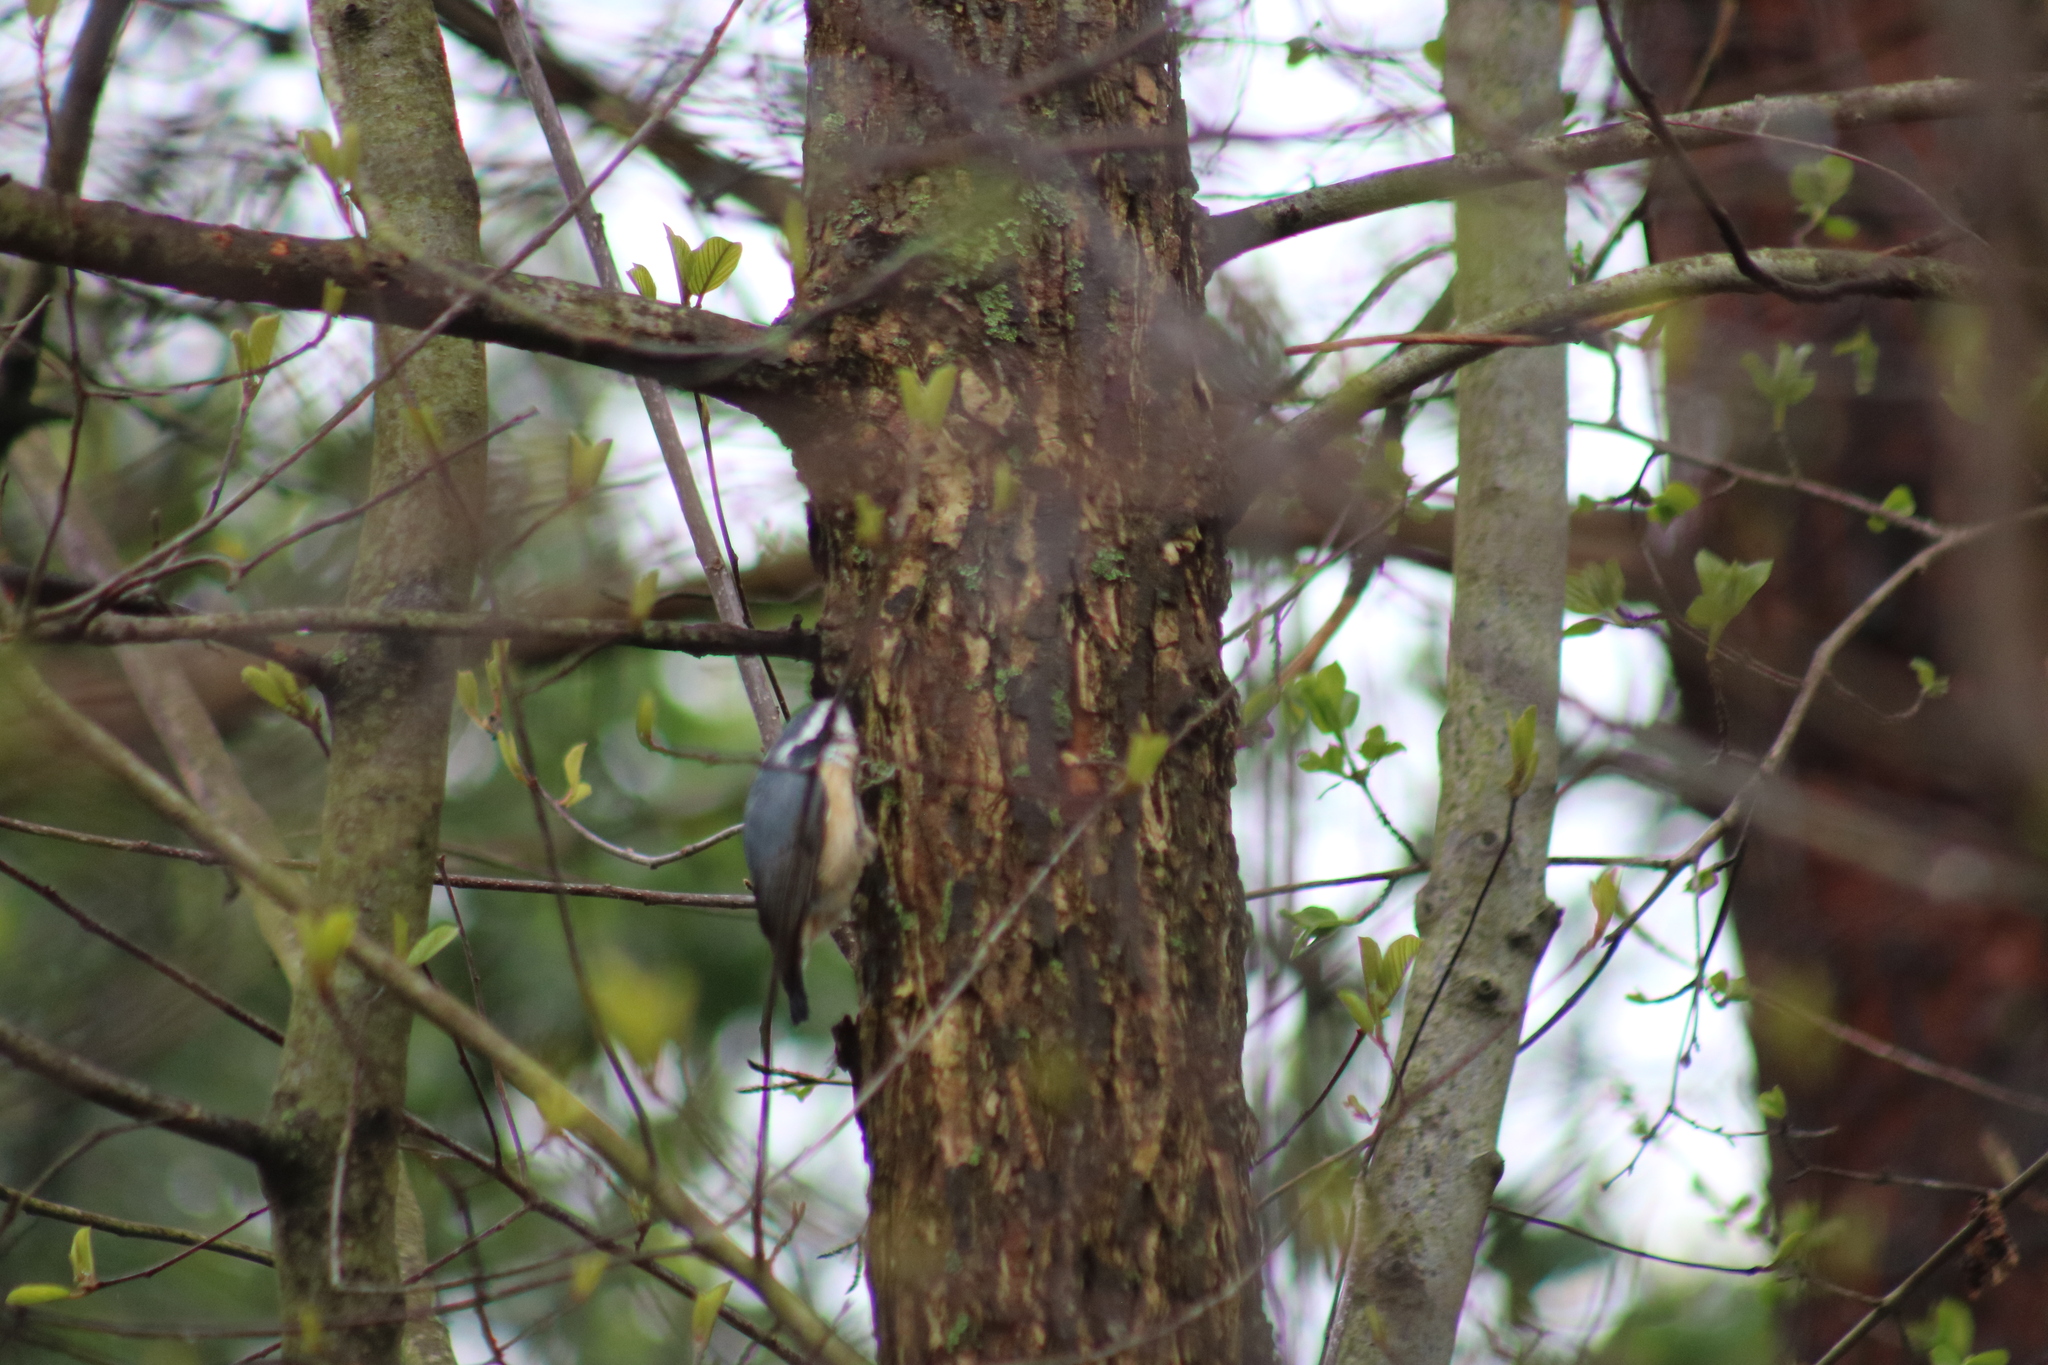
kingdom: Animalia
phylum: Chordata
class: Aves
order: Passeriformes
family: Sittidae
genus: Sitta
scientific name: Sitta canadensis
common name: Red-breasted nuthatch
